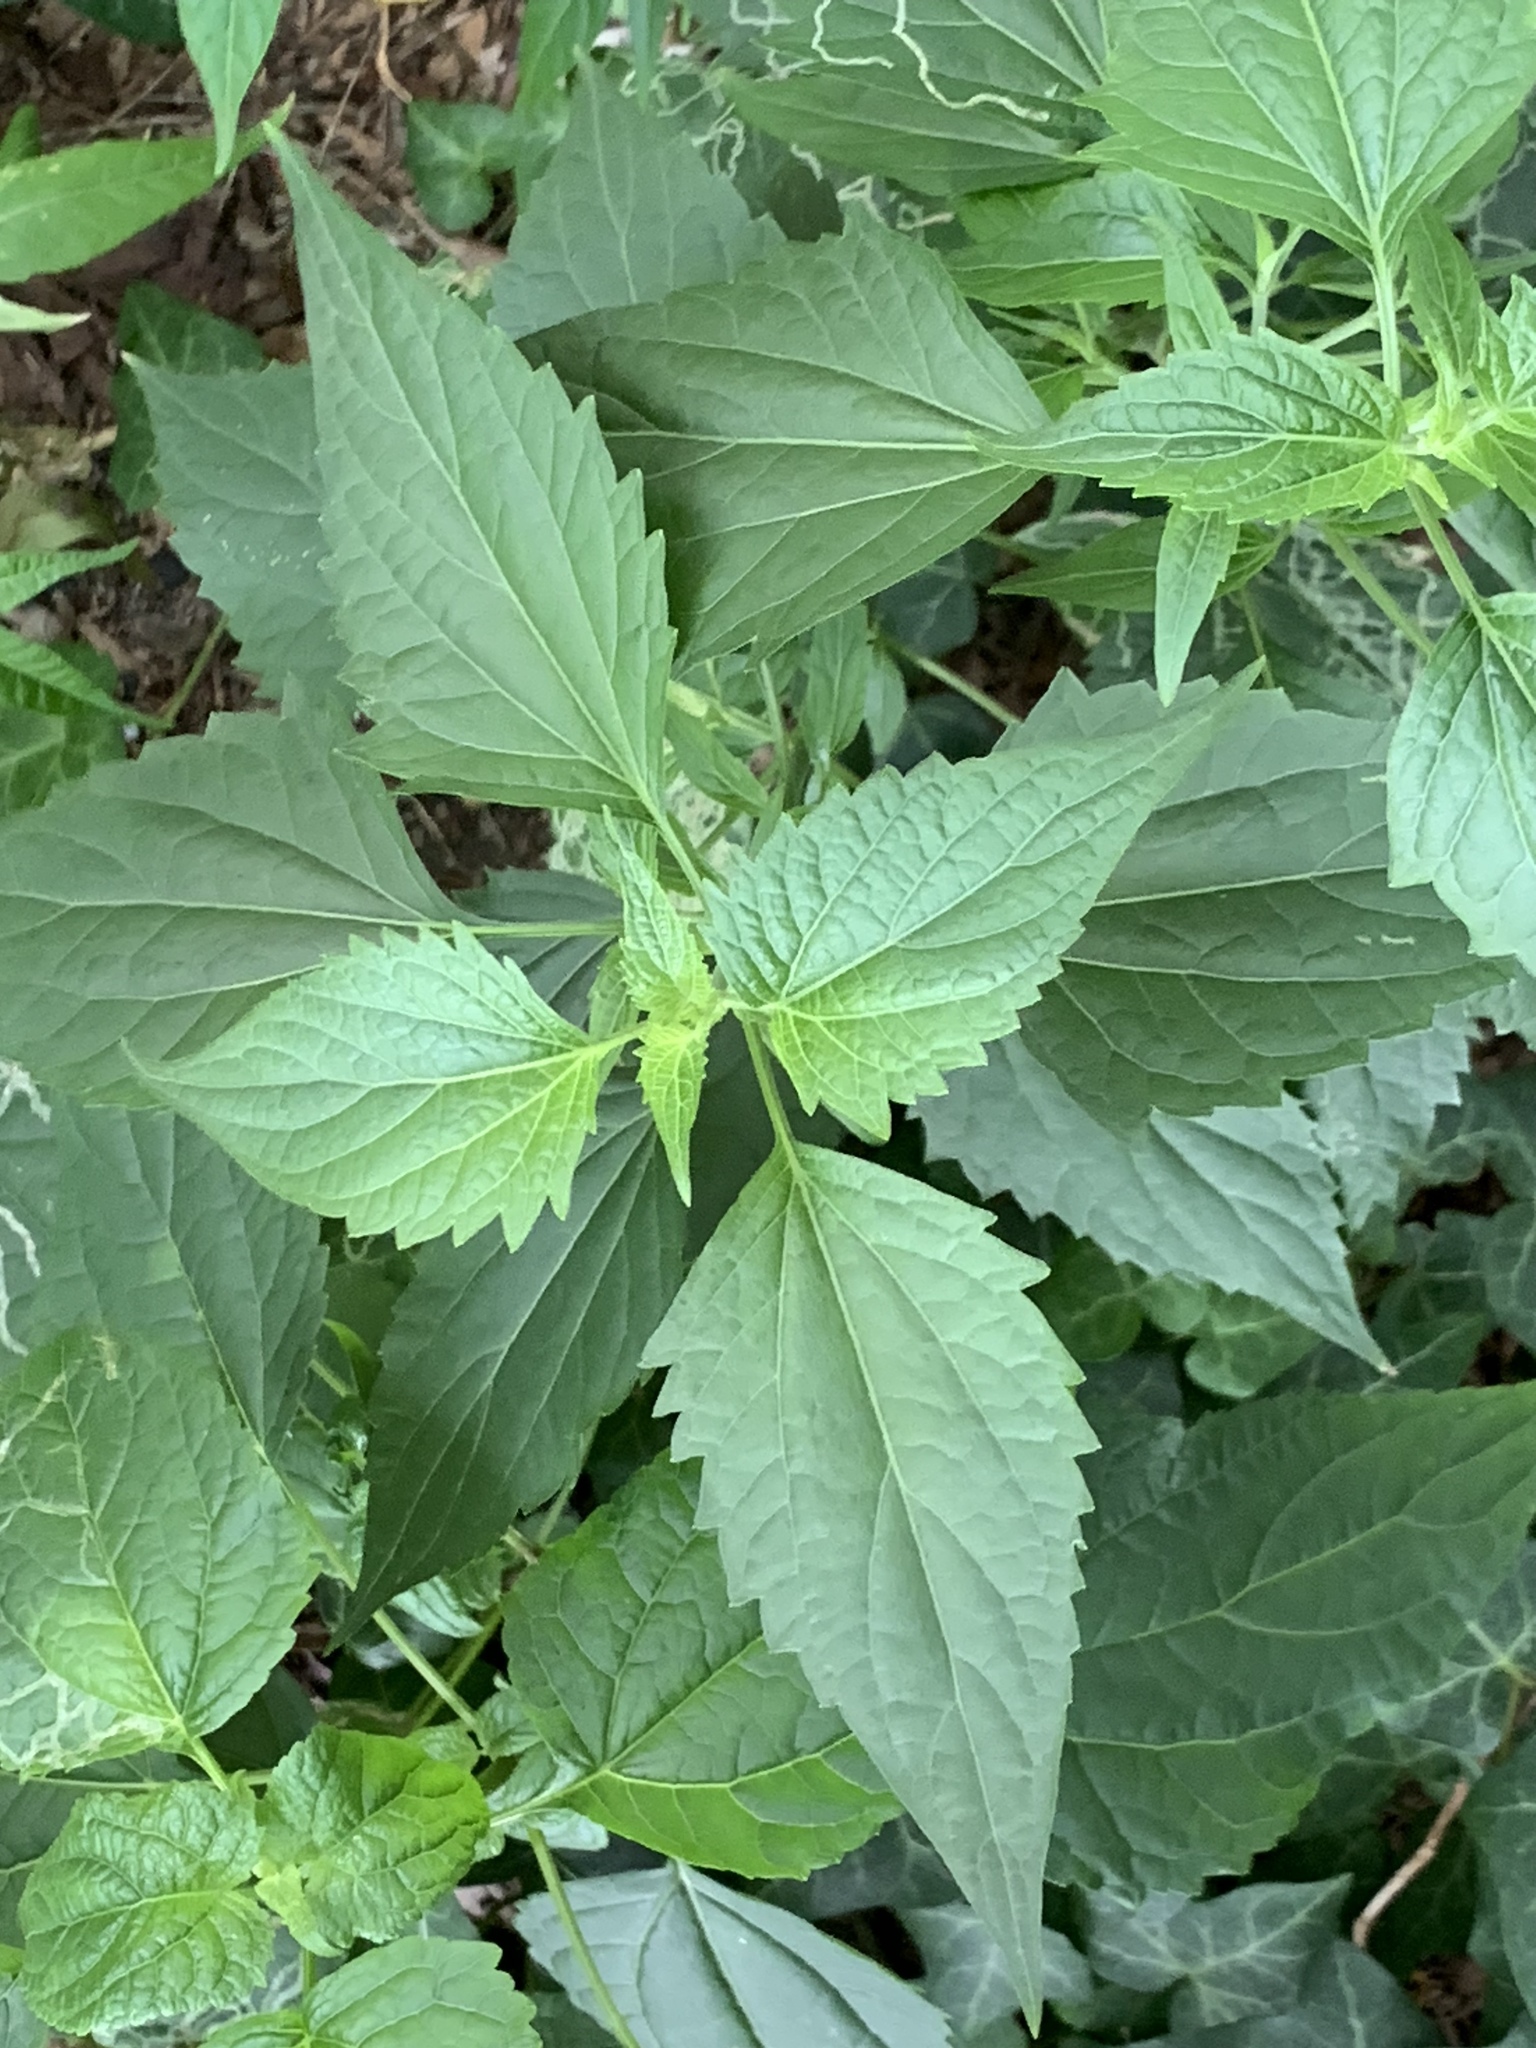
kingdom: Plantae
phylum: Tracheophyta
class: Magnoliopsida
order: Asterales
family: Asteraceae
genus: Ageratina
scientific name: Ageratina altissima
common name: White snakeroot
